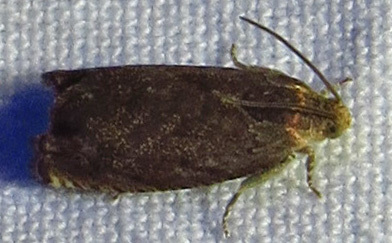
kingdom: Animalia
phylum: Arthropoda
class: Insecta
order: Lepidoptera
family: Tortricidae
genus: Cydia
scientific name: Cydia caryana
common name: Hickory shuckworm moth
